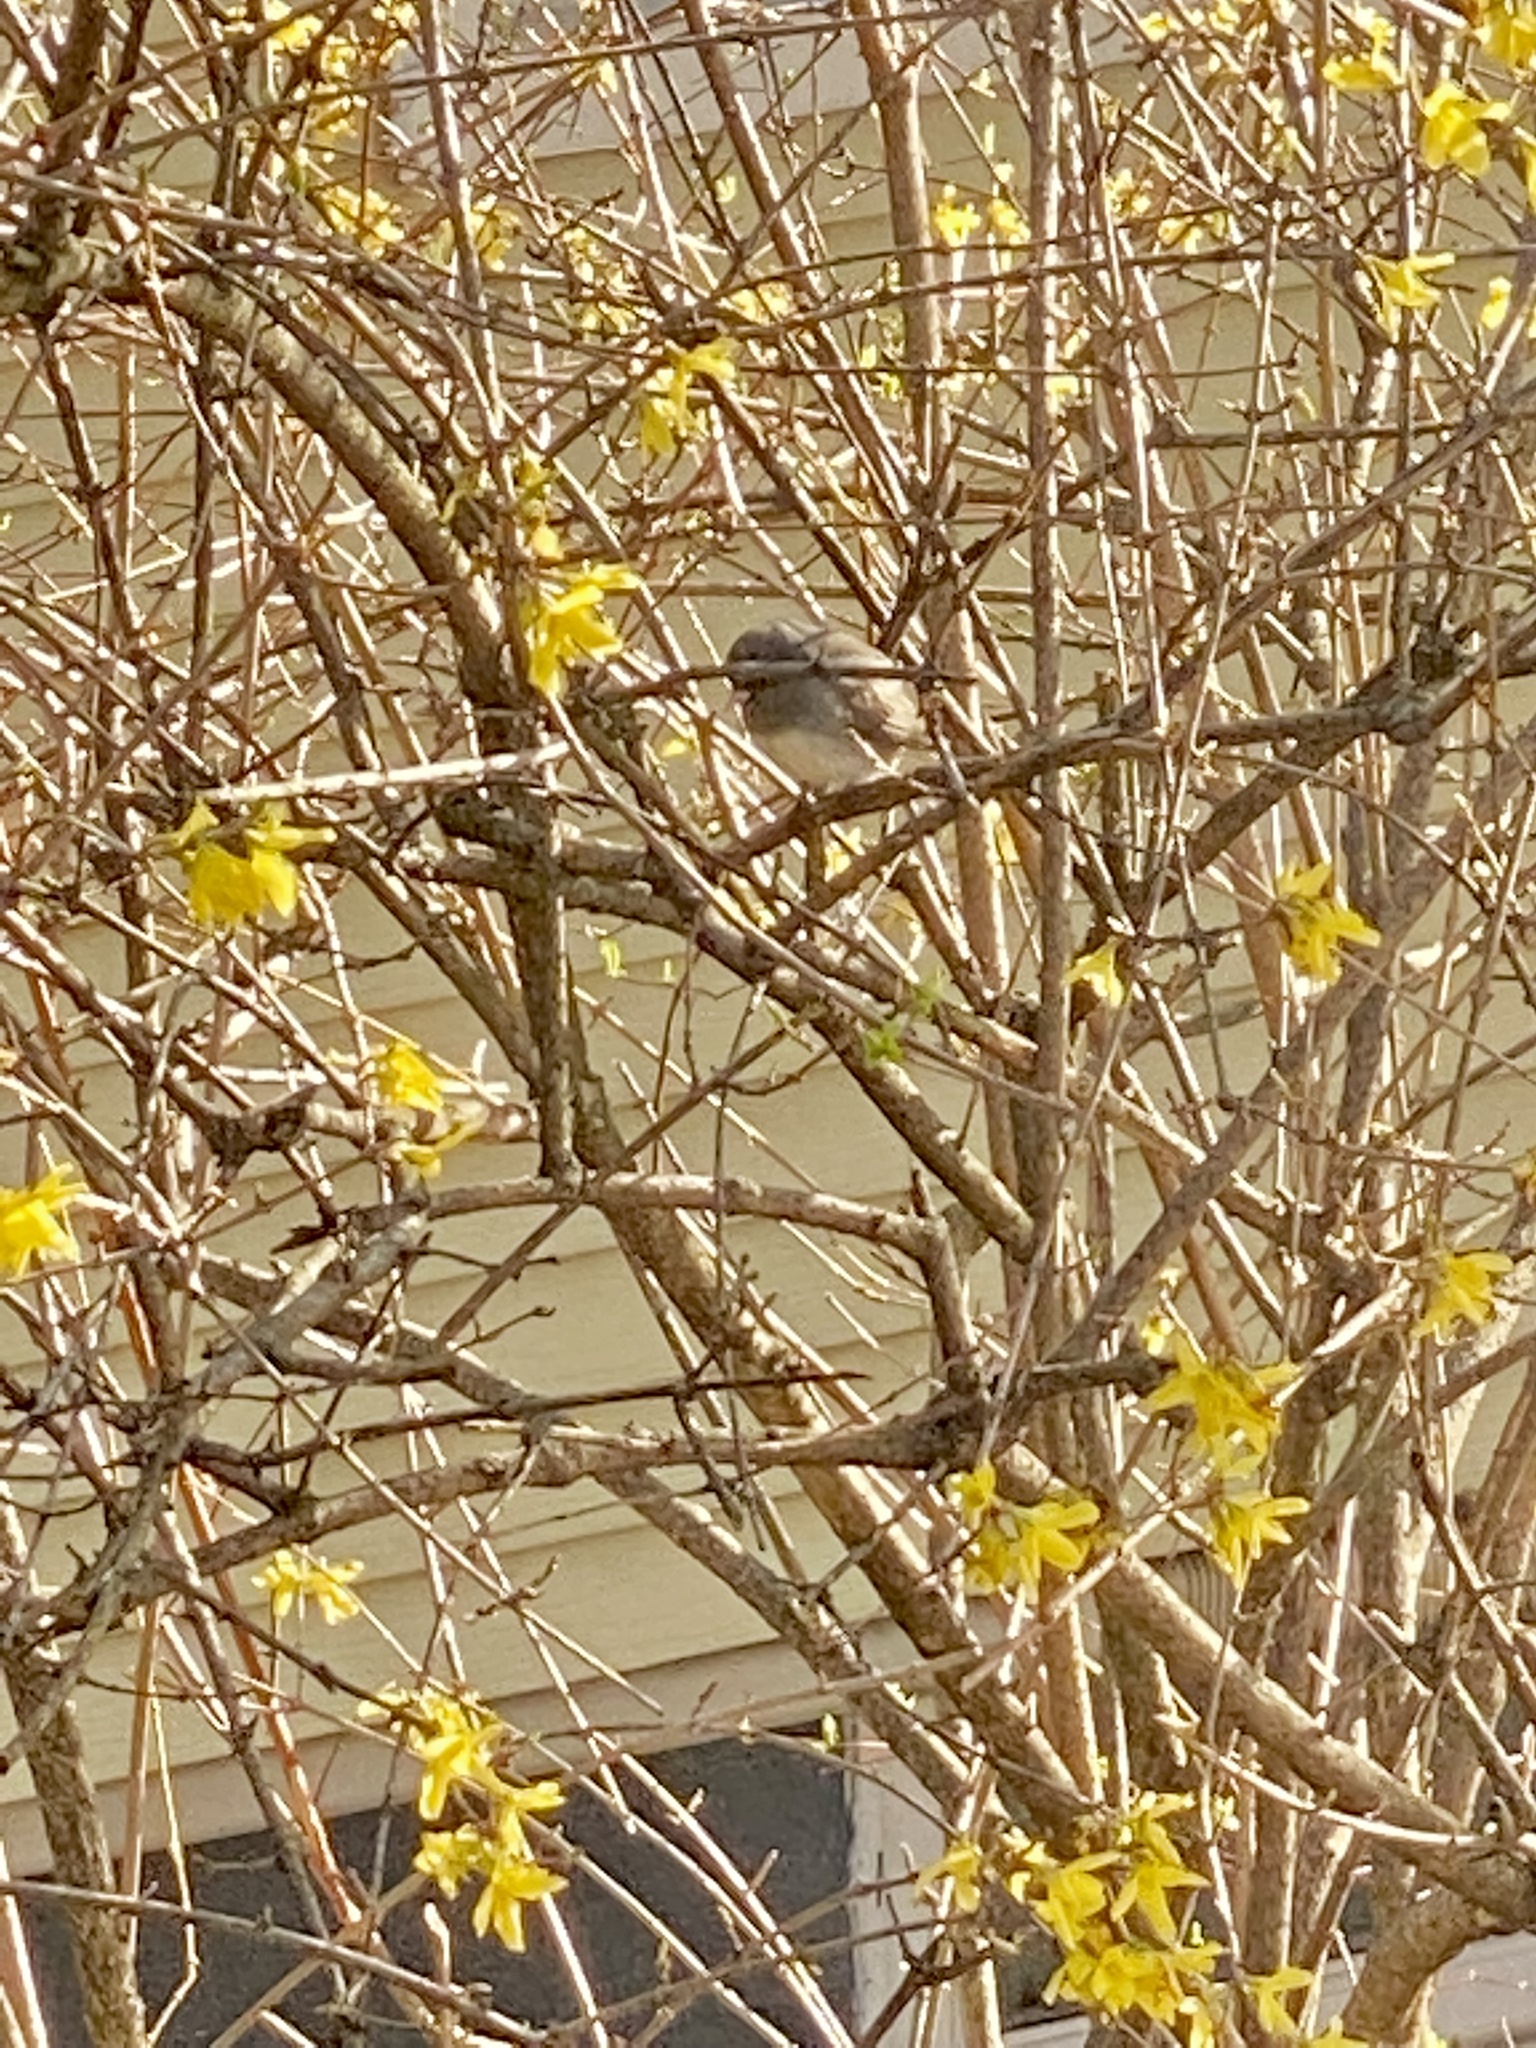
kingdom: Animalia
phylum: Chordata
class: Aves
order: Passeriformes
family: Passerellidae
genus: Junco
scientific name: Junco hyemalis
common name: Dark-eyed junco
